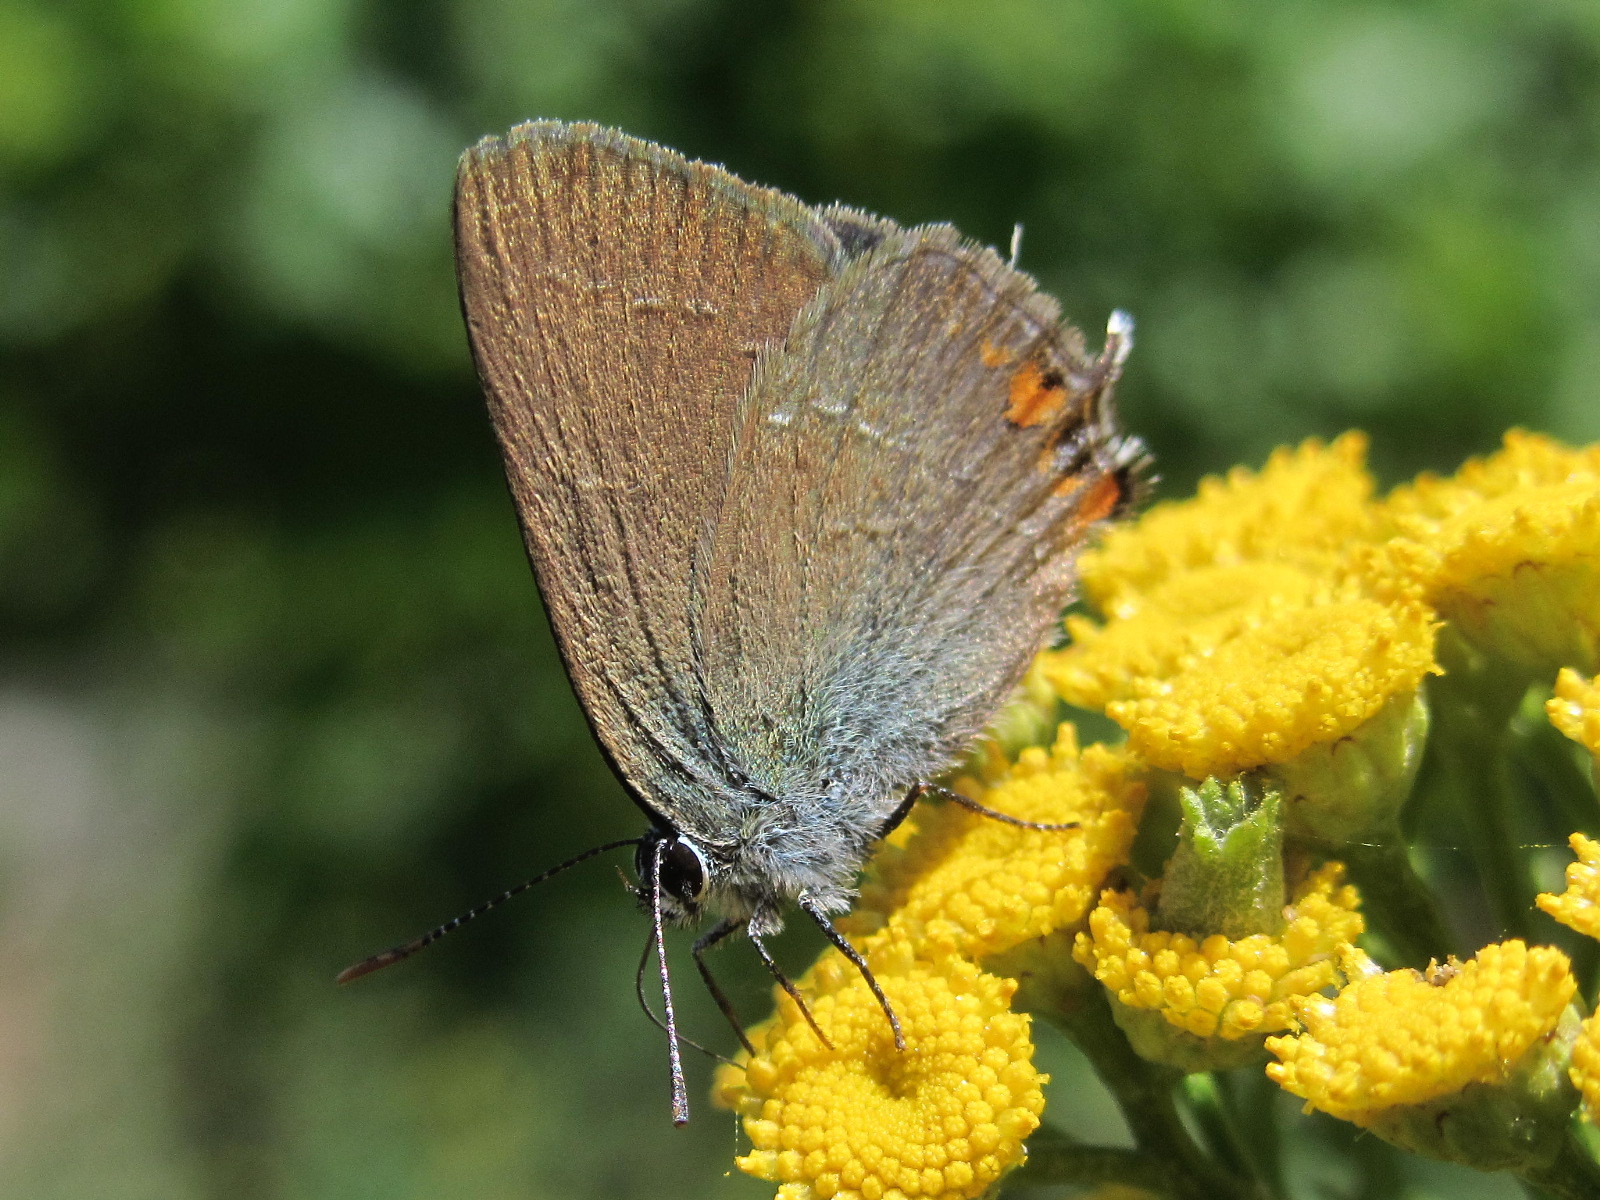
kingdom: Animalia
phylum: Arthropoda
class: Insecta
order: Lepidoptera
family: Lycaenidae
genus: Strymon
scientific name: Strymon acaciae
